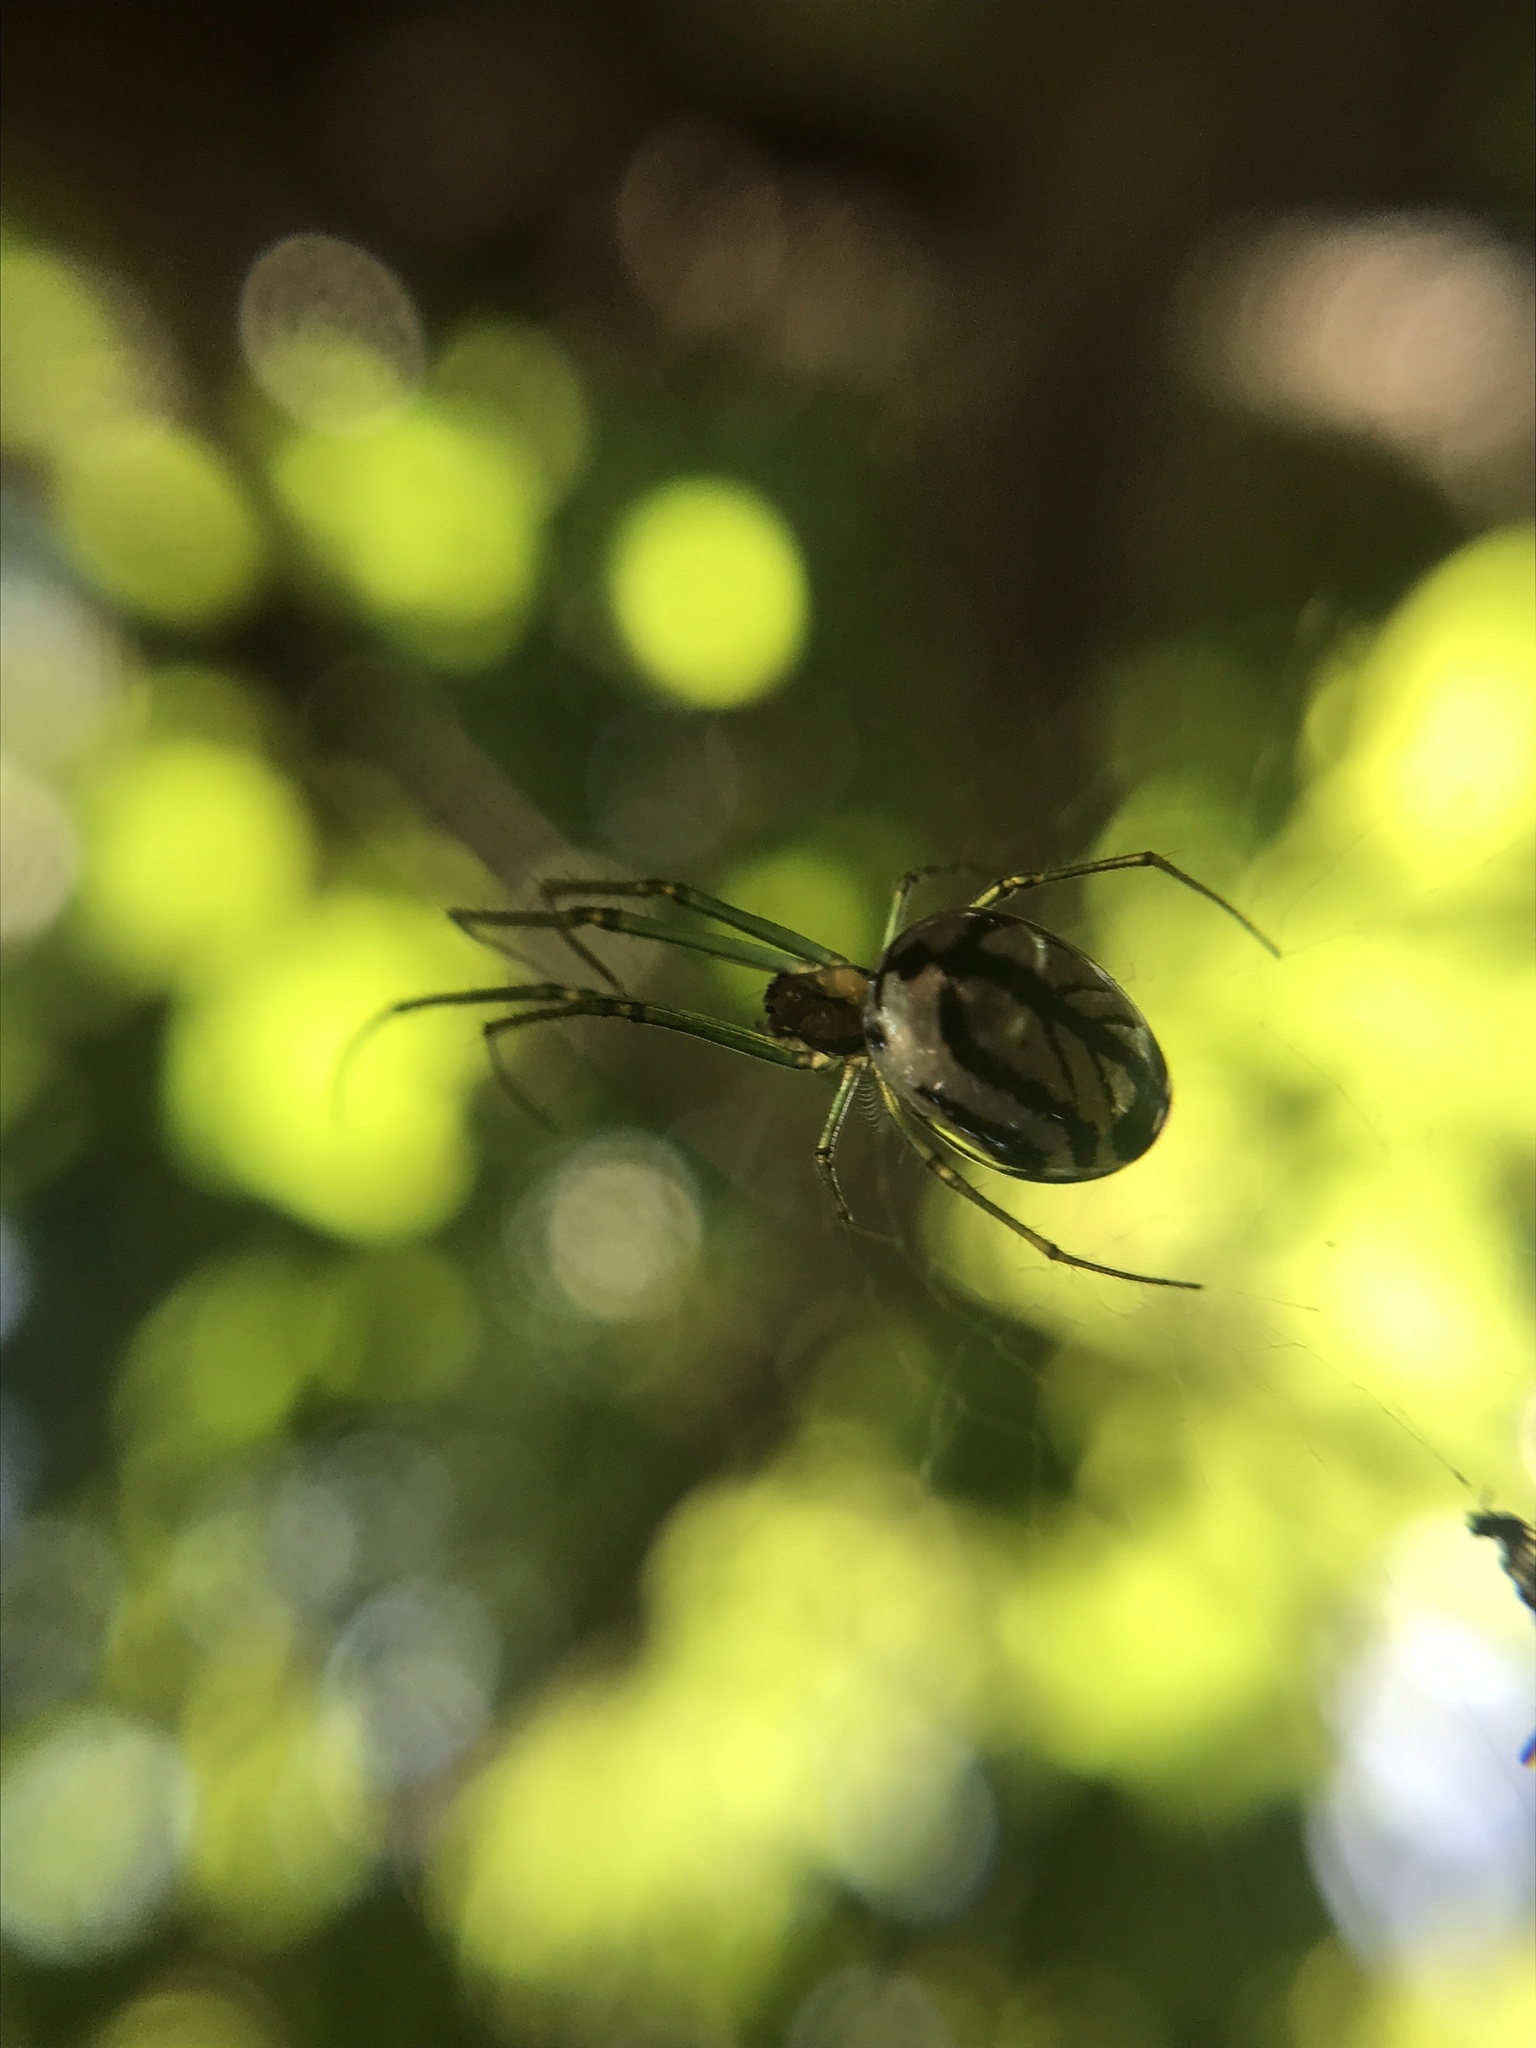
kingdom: Animalia
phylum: Arthropoda
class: Arachnida
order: Araneae
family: Tetragnathidae
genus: Leucauge
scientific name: Leucauge volupis
